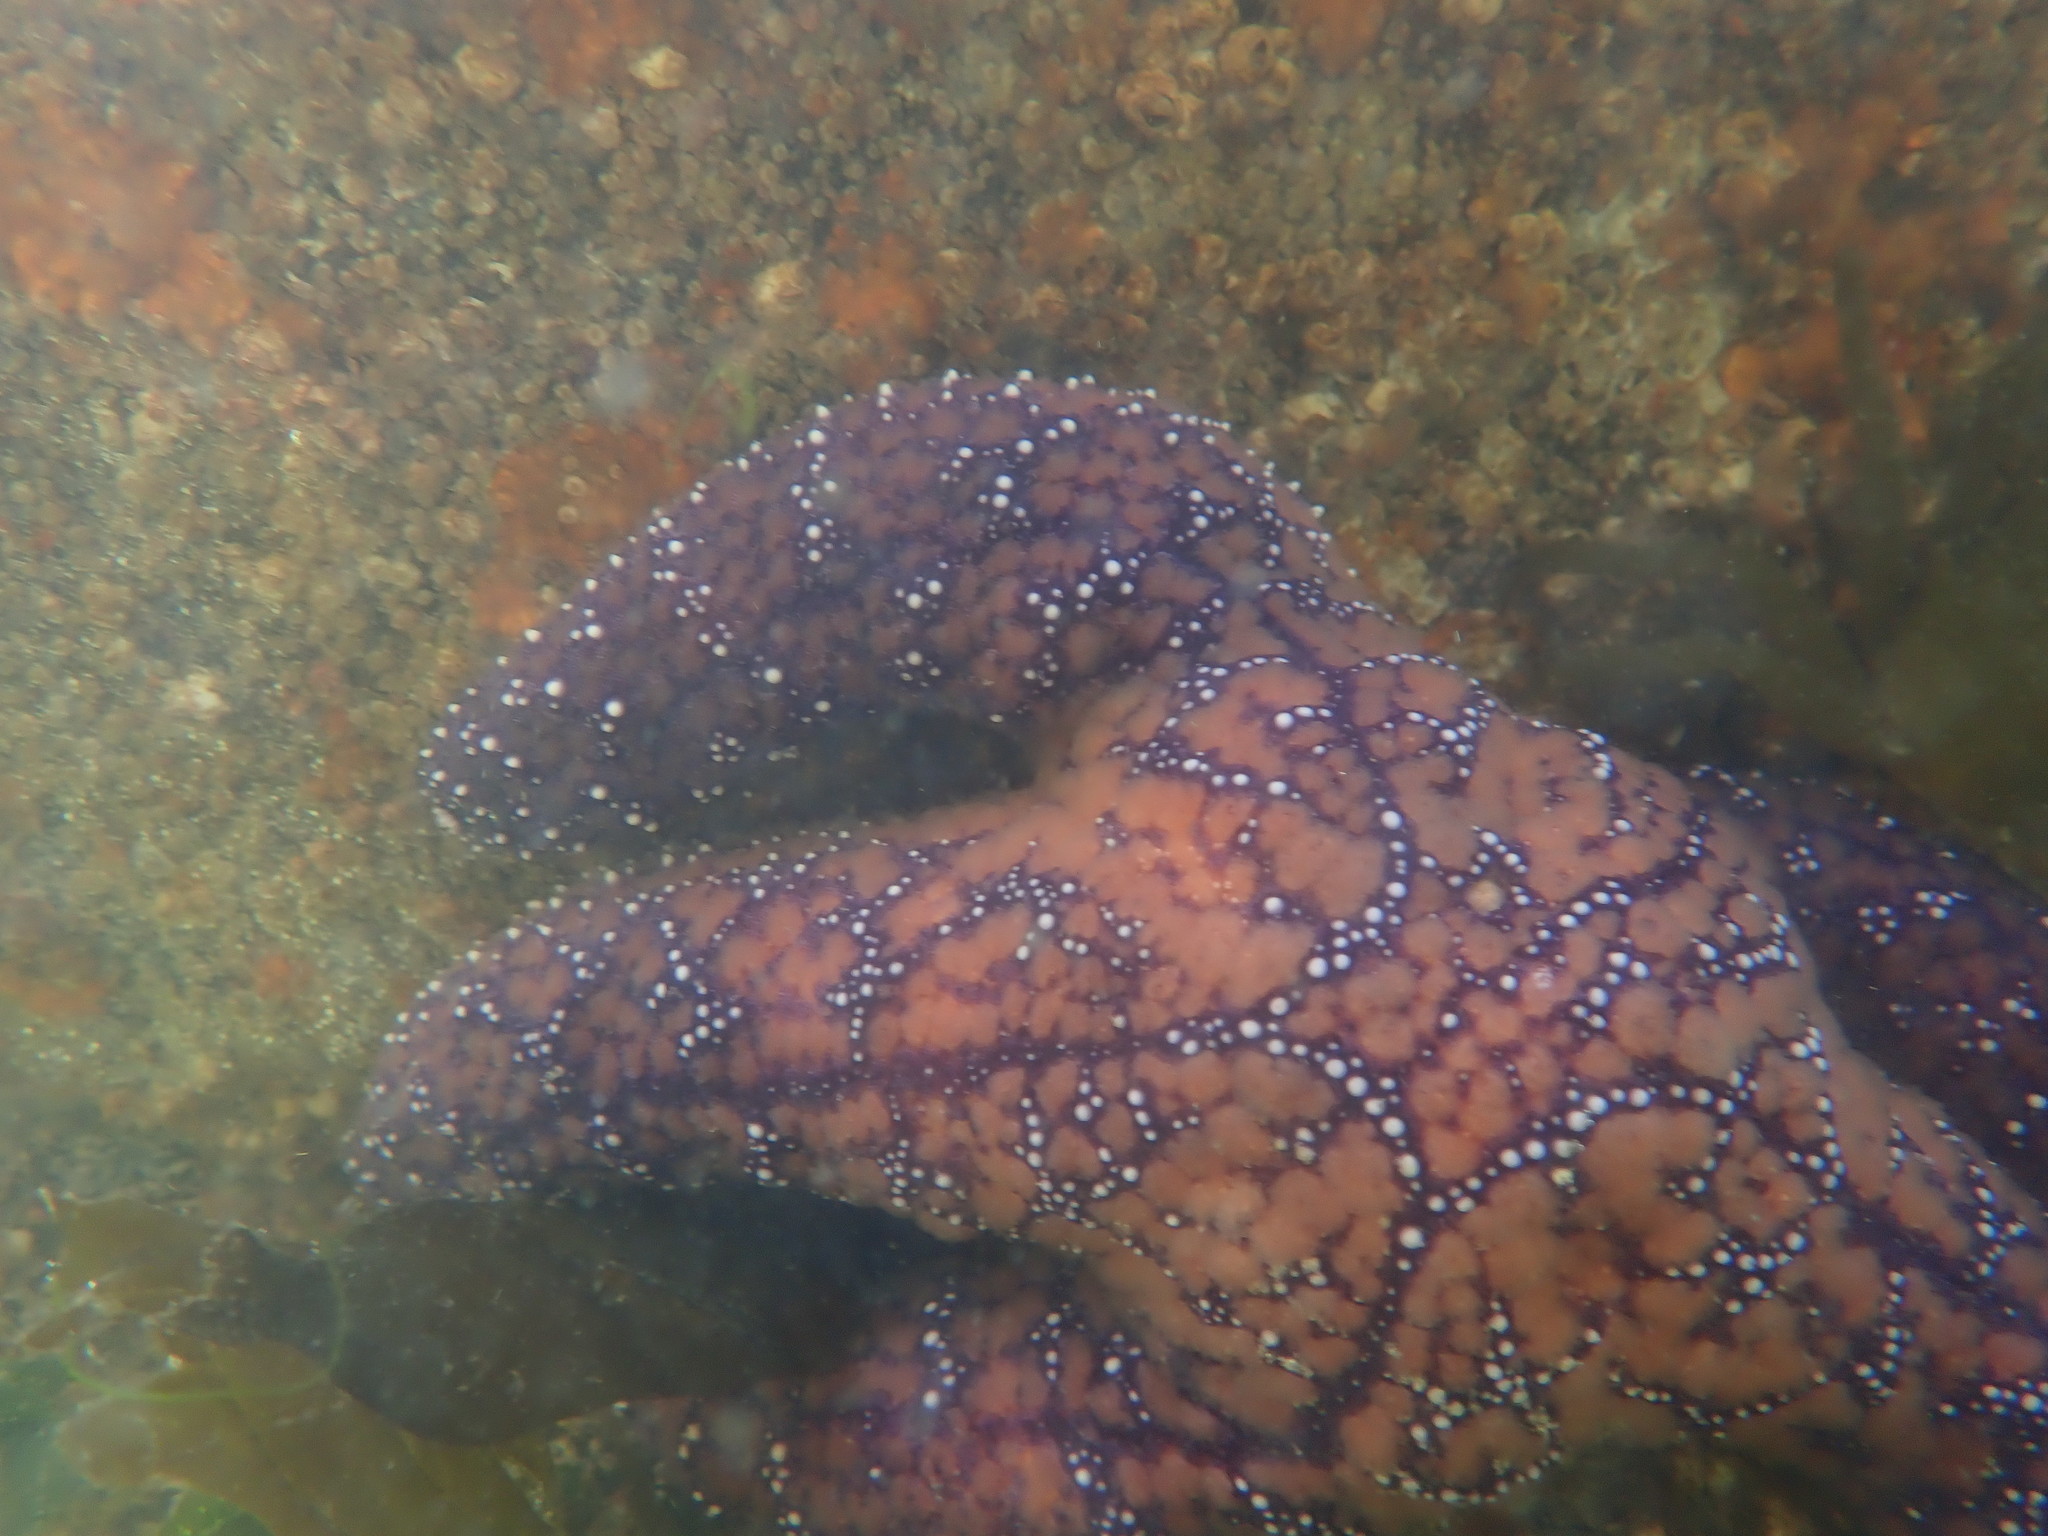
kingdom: Animalia
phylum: Echinodermata
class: Asteroidea
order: Forcipulatida
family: Asteriidae
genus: Pisaster
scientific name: Pisaster ochraceus
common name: Ochre stars
